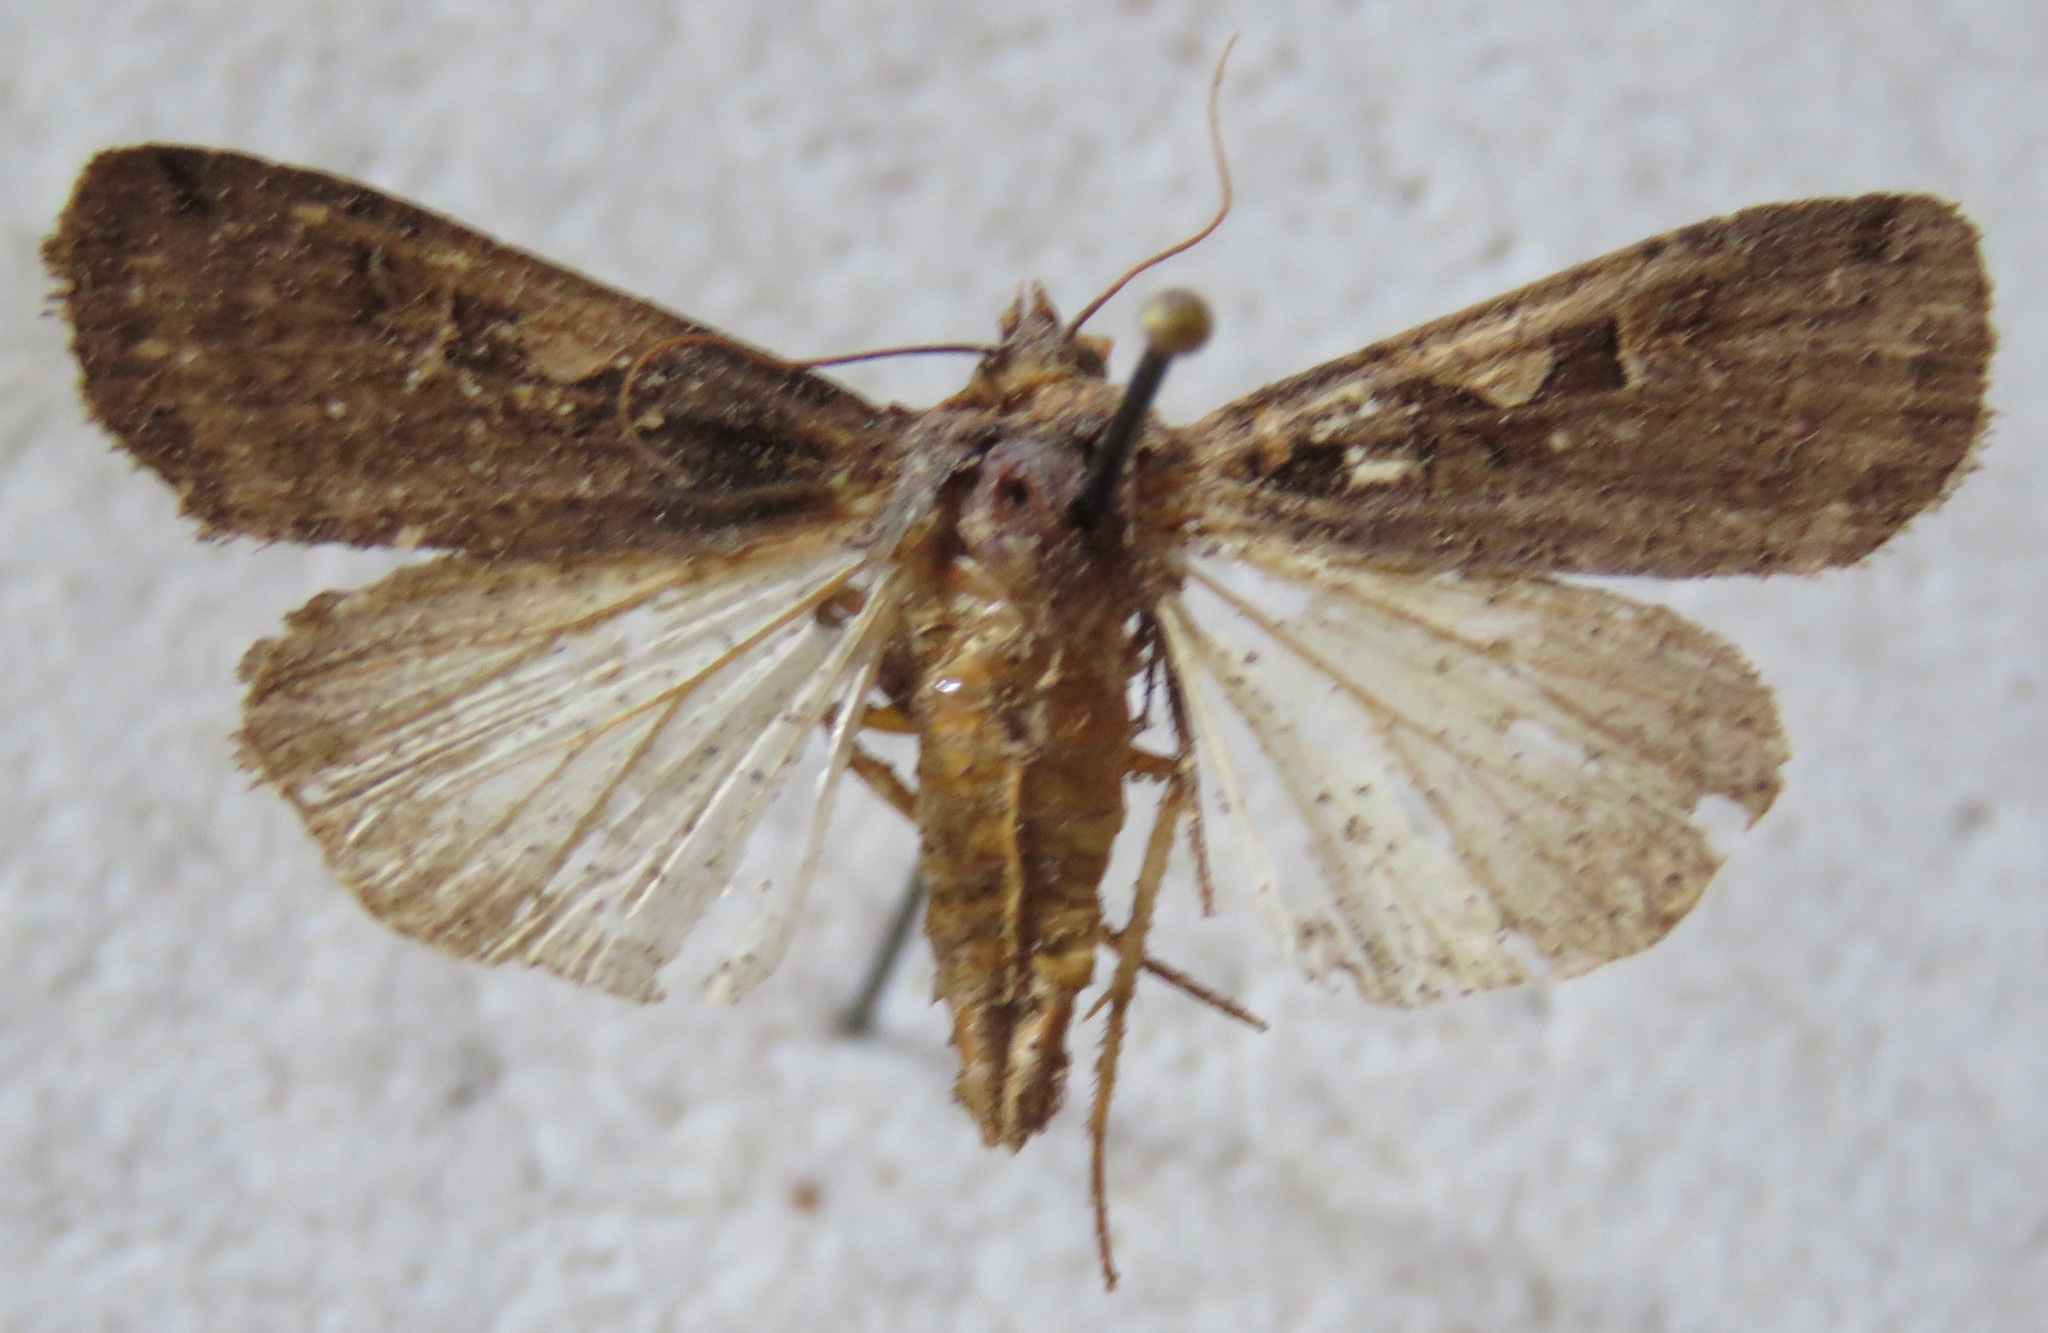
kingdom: Animalia
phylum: Arthropoda
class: Insecta
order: Lepidoptera
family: Noctuidae
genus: Xestia
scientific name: Xestia c-nigrum
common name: Setaceous hebrew character
